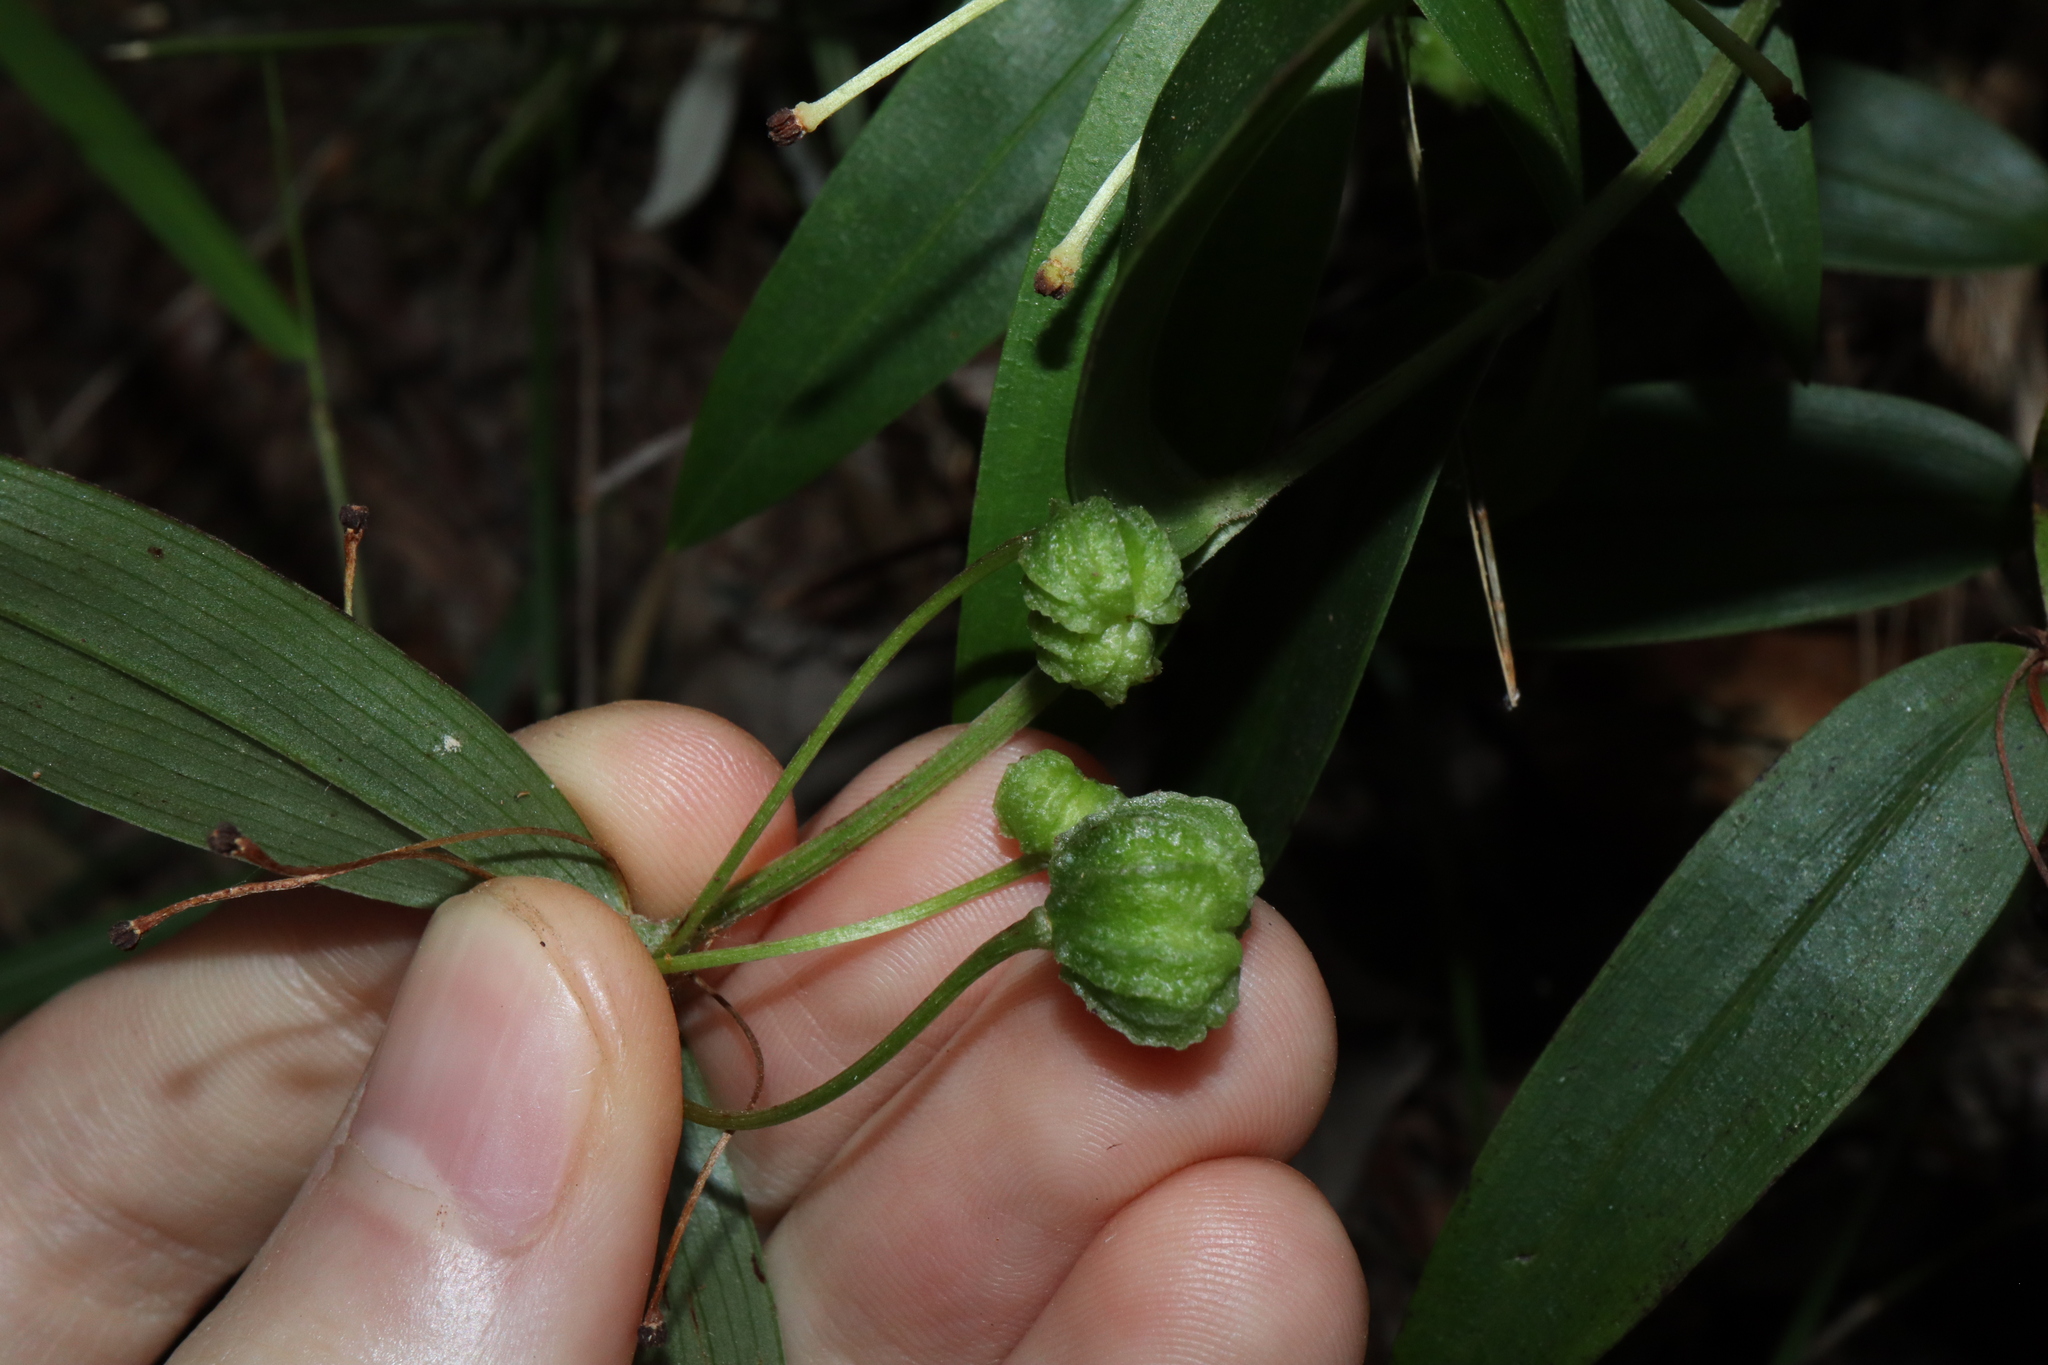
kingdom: Plantae
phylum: Tracheophyta
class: Liliopsida
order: Liliales
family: Colchicaceae
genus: Schelhammera
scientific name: Schelhammera multiflora
